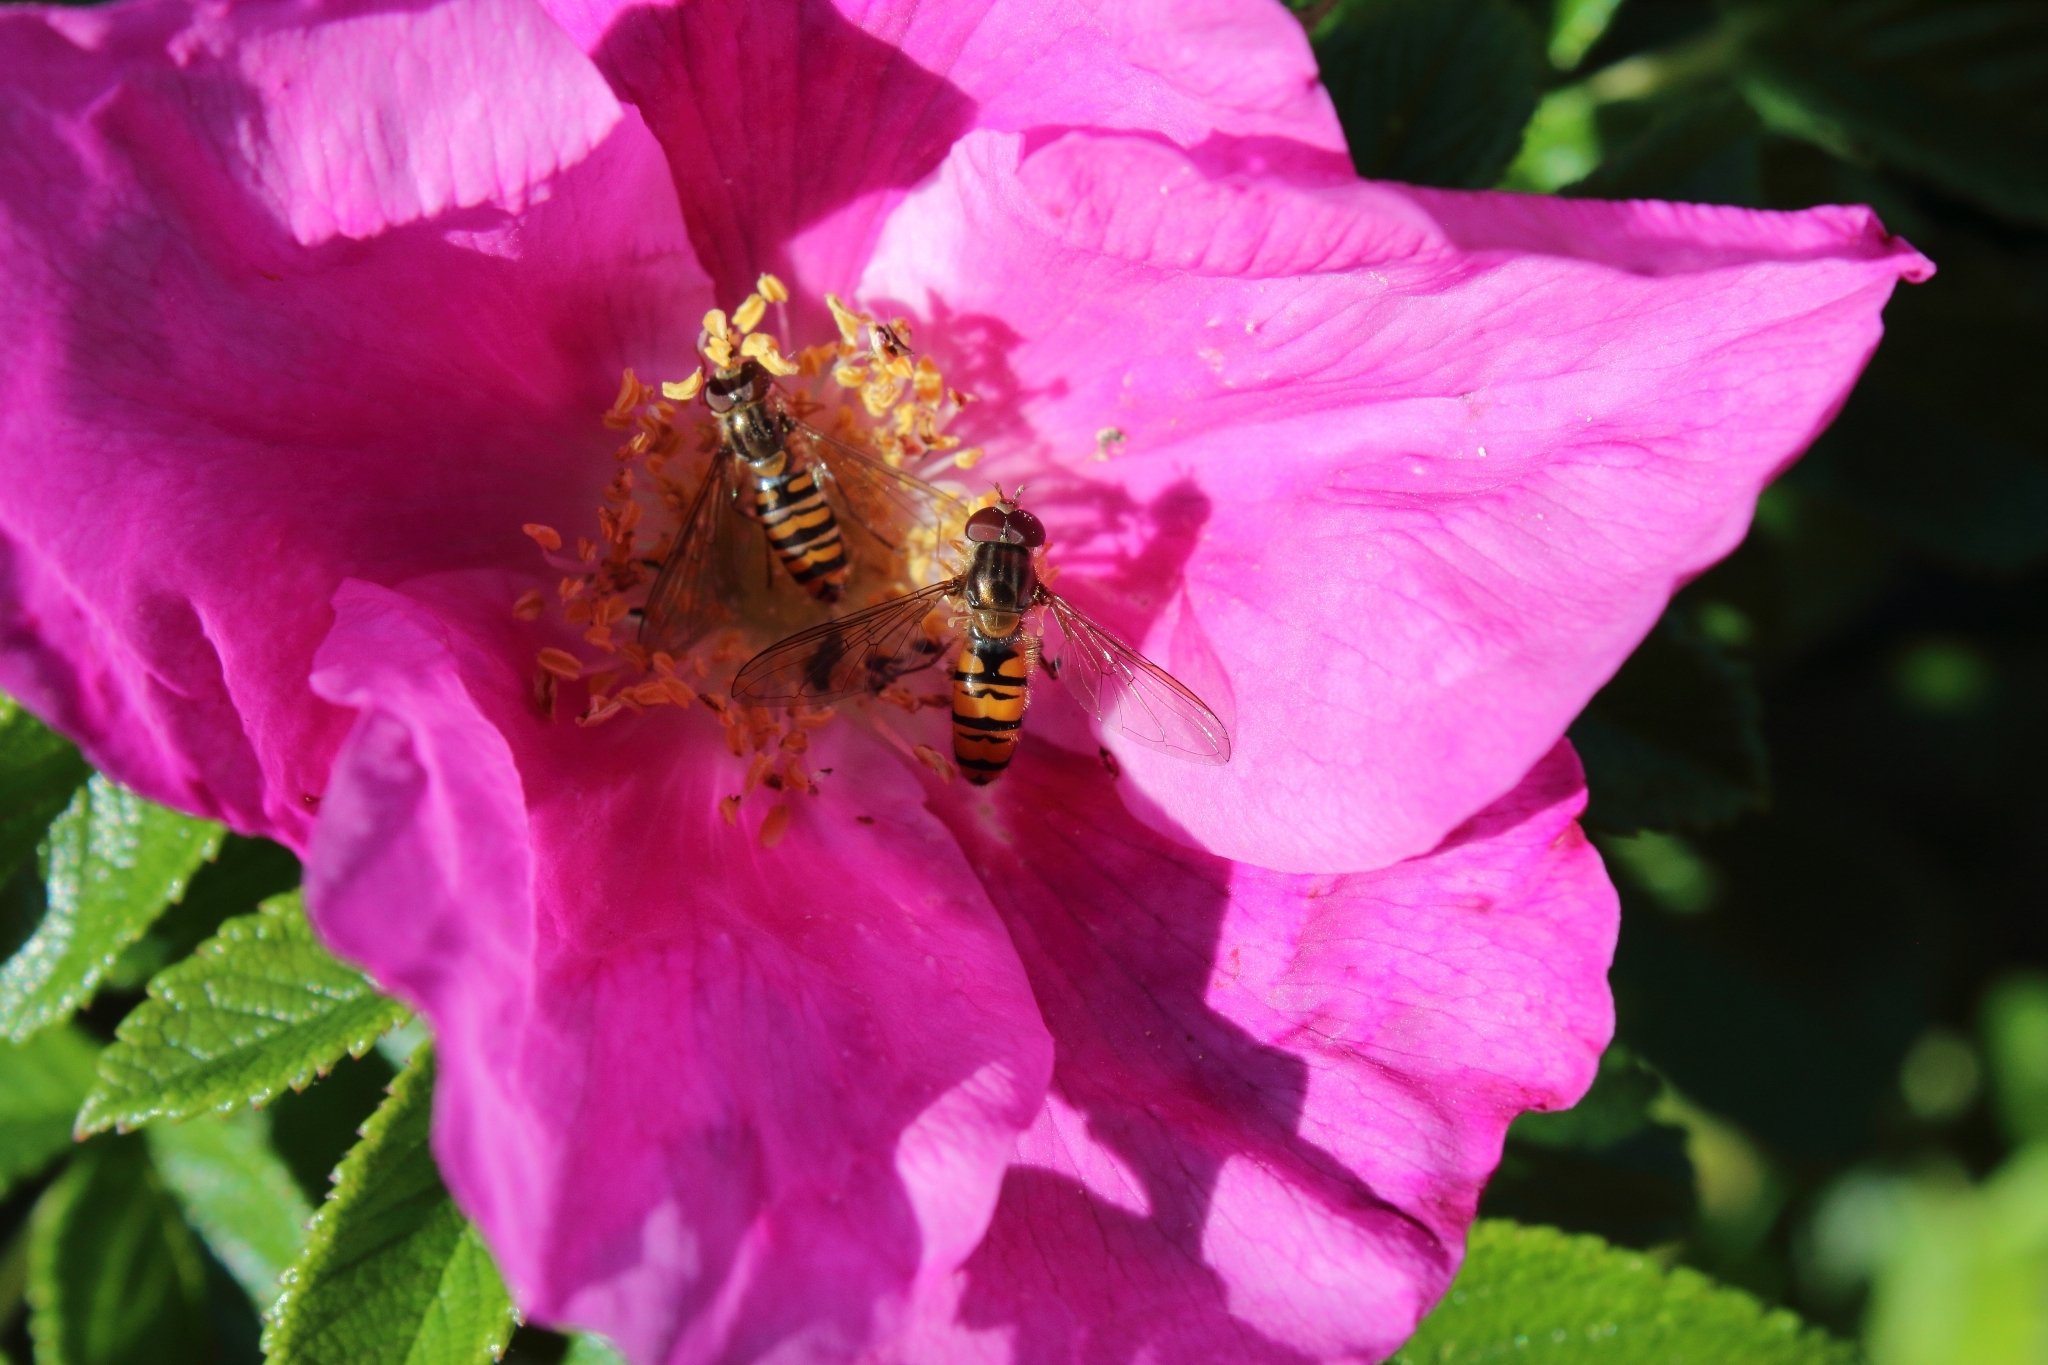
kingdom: Animalia
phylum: Arthropoda
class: Insecta
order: Diptera
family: Syrphidae
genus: Episyrphus
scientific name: Episyrphus balteatus
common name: Marmalade hoverfly
